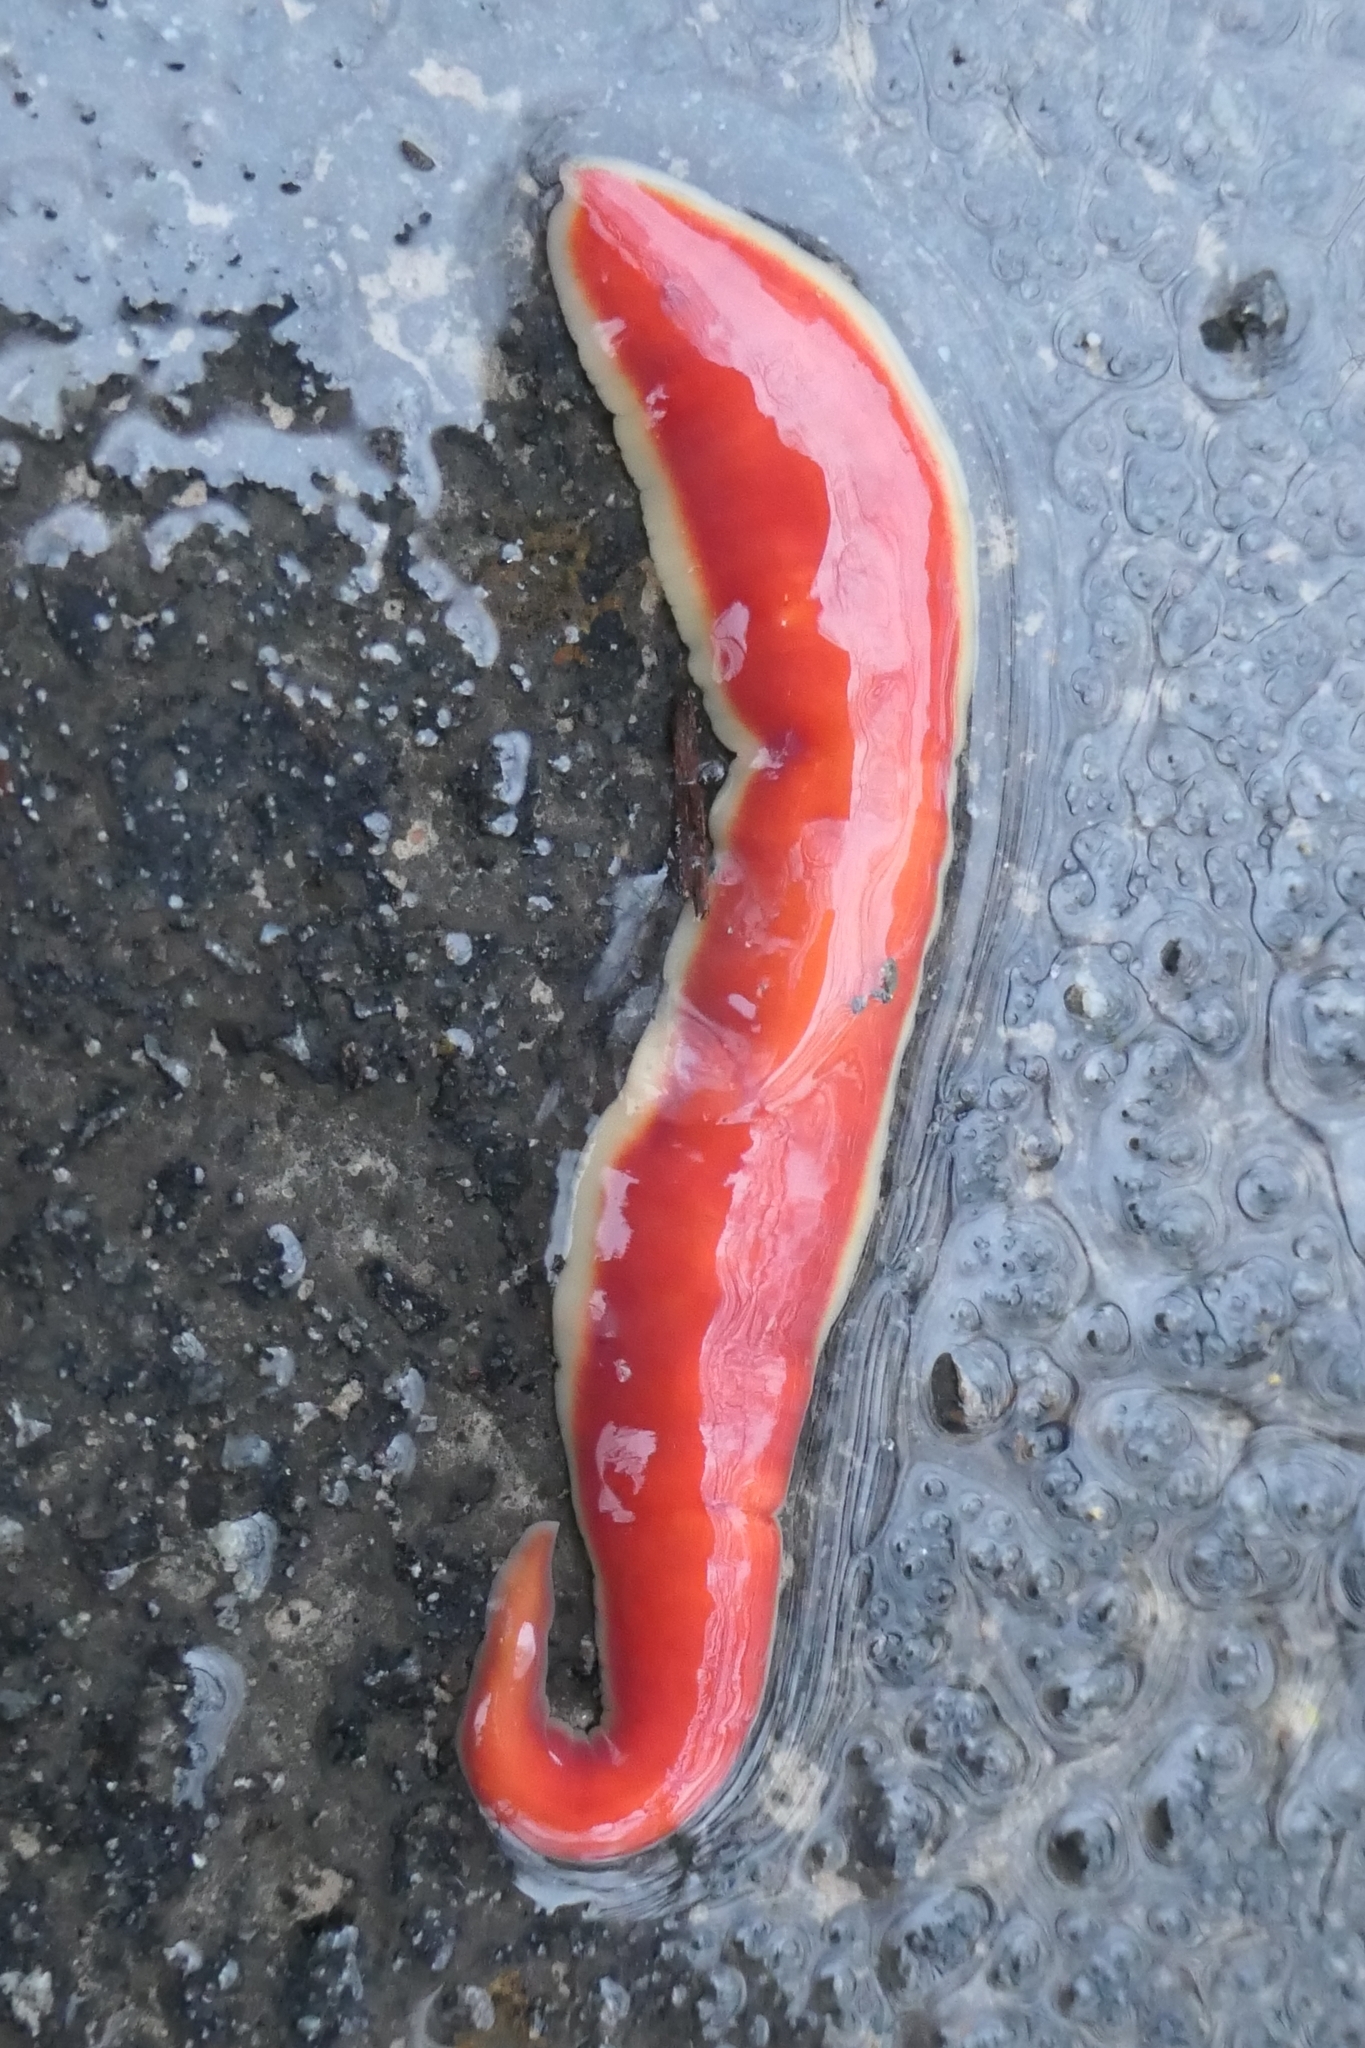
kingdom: Animalia
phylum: Platyhelminthes
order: Tricladida
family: Geoplanidae
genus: Arthurdendyus
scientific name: Arthurdendyus testaceus
